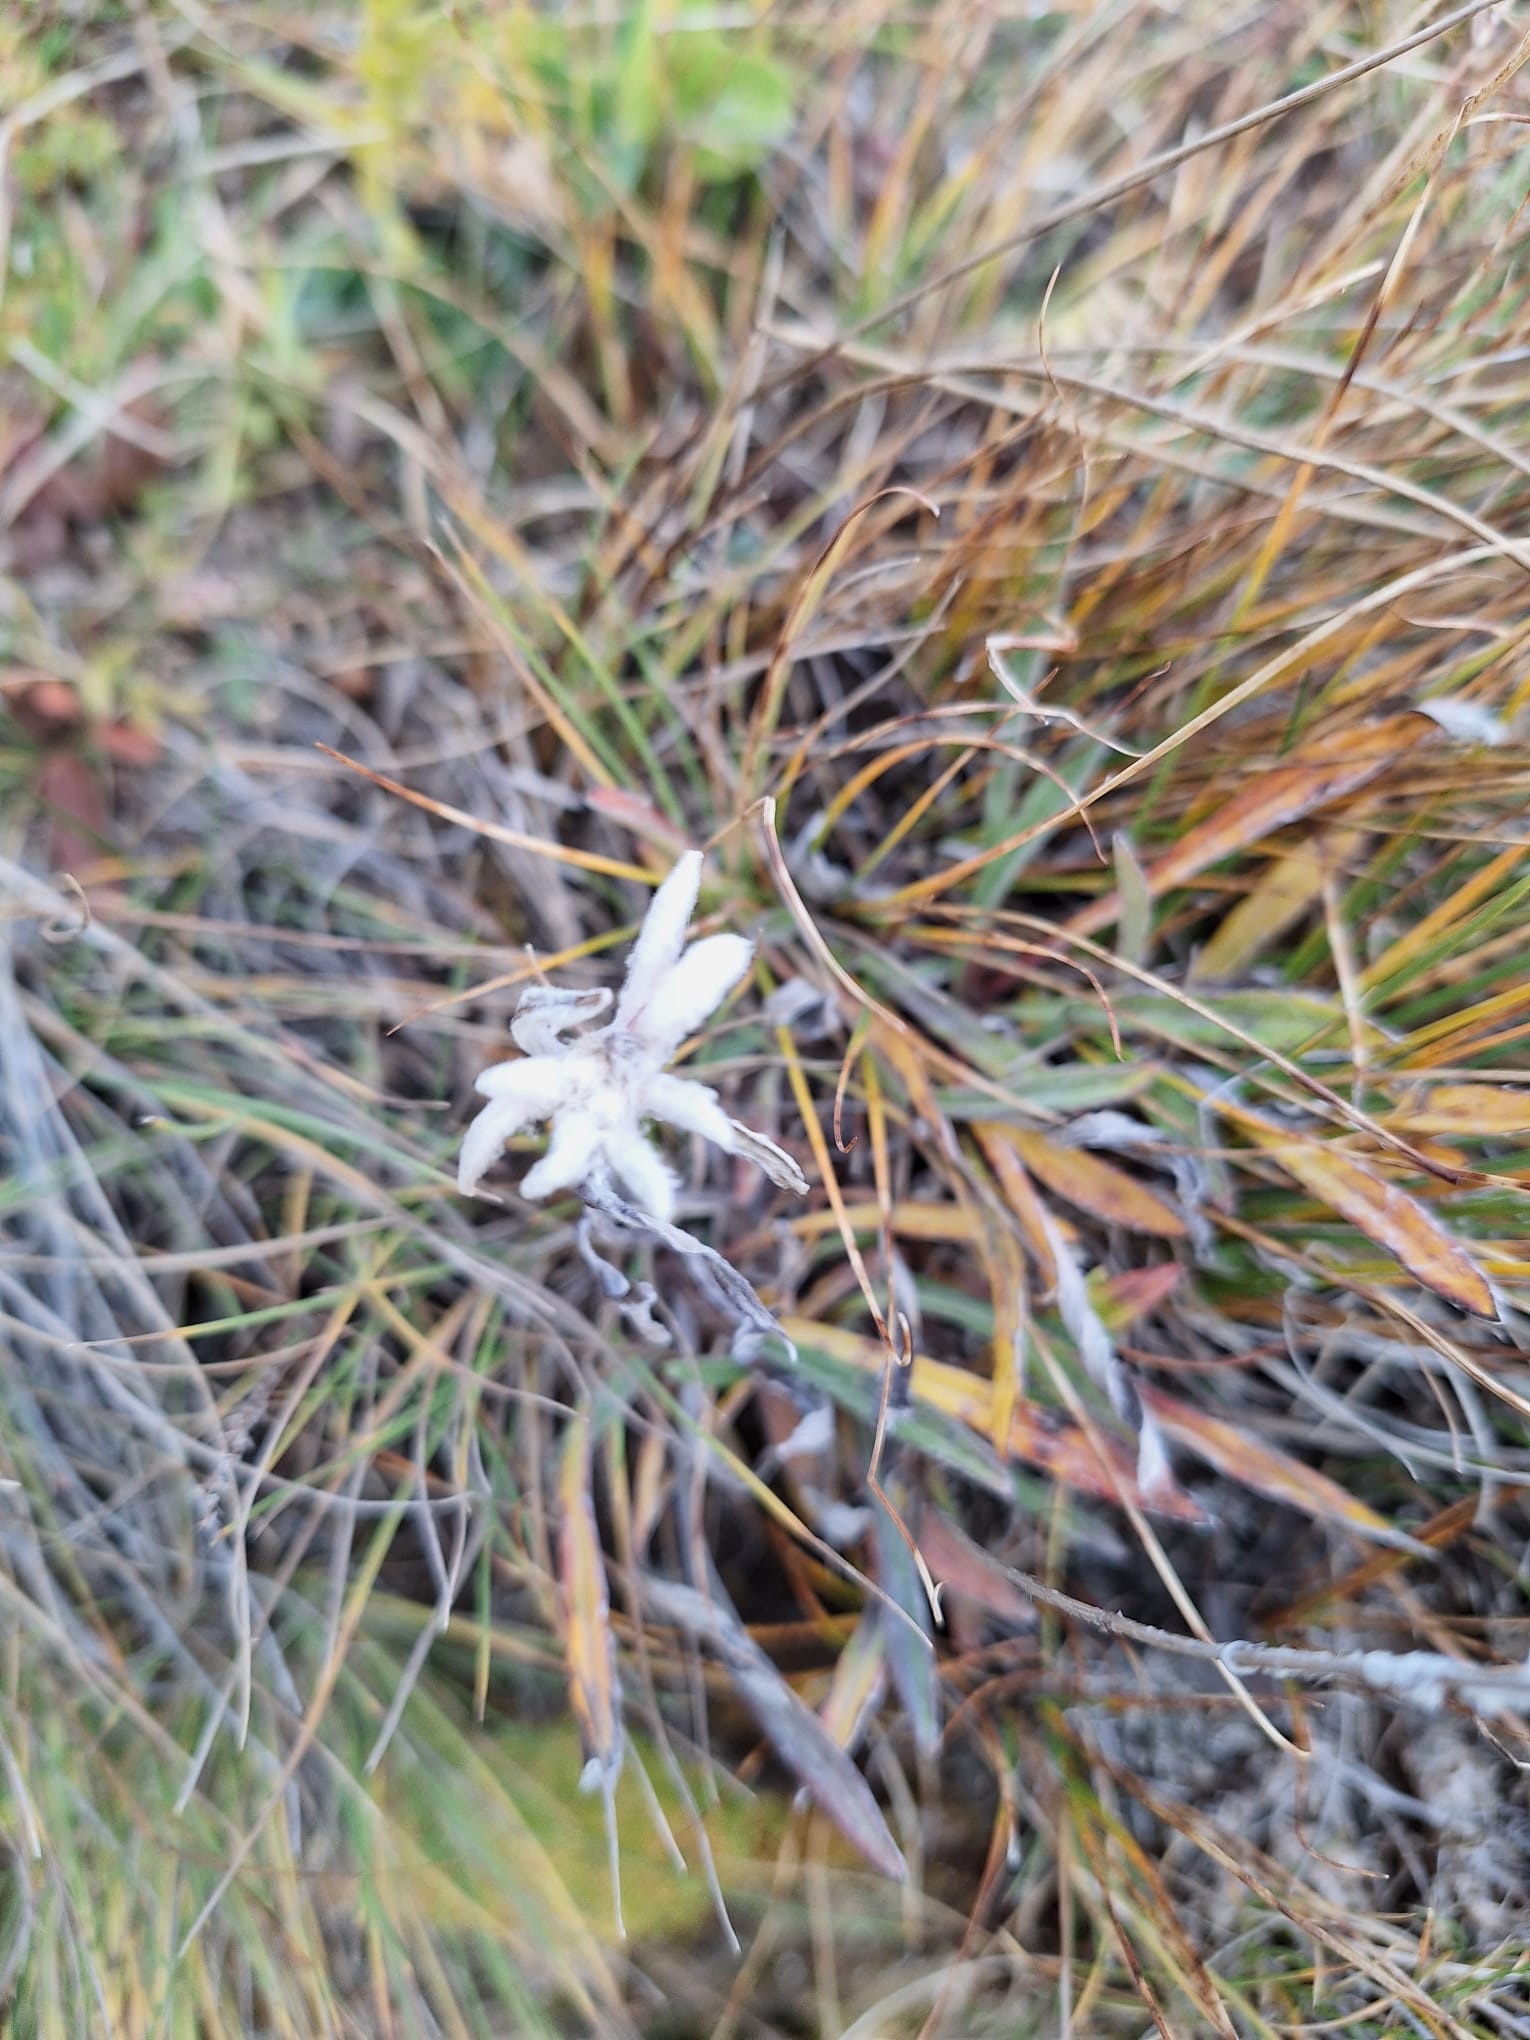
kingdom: Plantae
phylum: Tracheophyta
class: Magnoliopsida
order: Asterales
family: Asteraceae
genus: Leontopodium
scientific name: Leontopodium nivale
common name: Edelweiss
